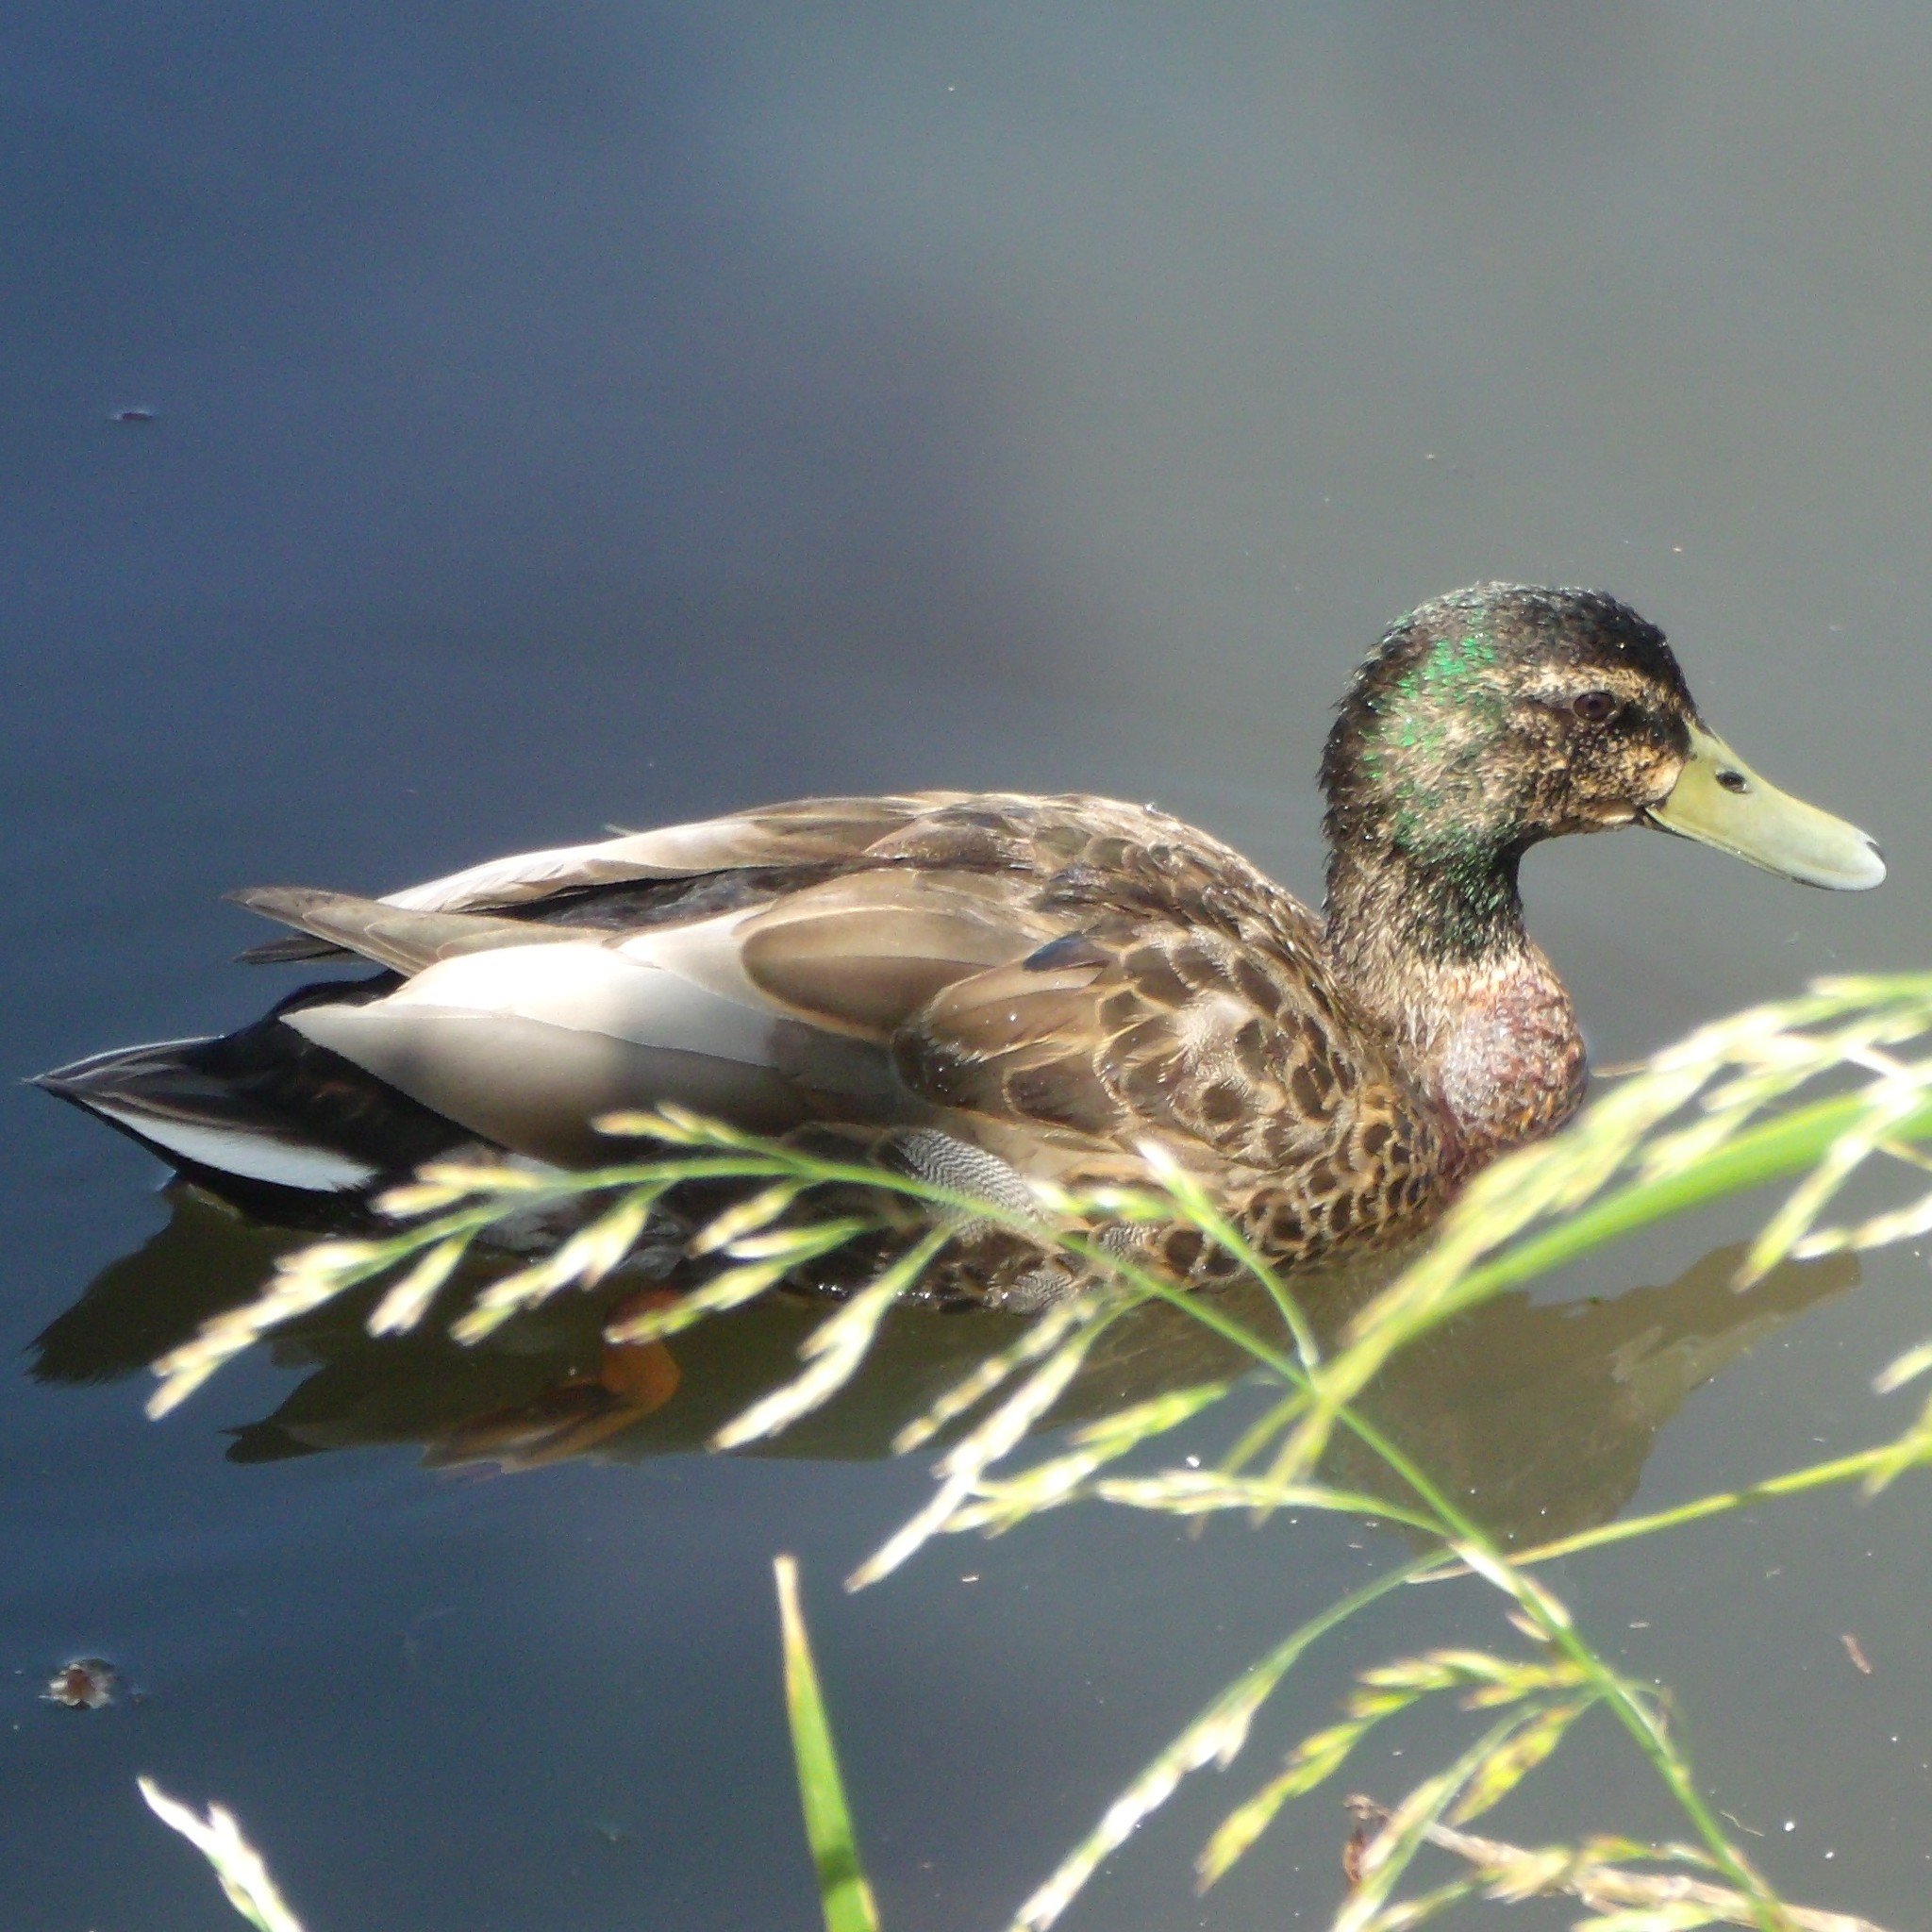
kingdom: Animalia
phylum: Chordata
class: Aves
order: Anseriformes
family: Anatidae
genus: Anas
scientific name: Anas platyrhynchos
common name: Mallard
